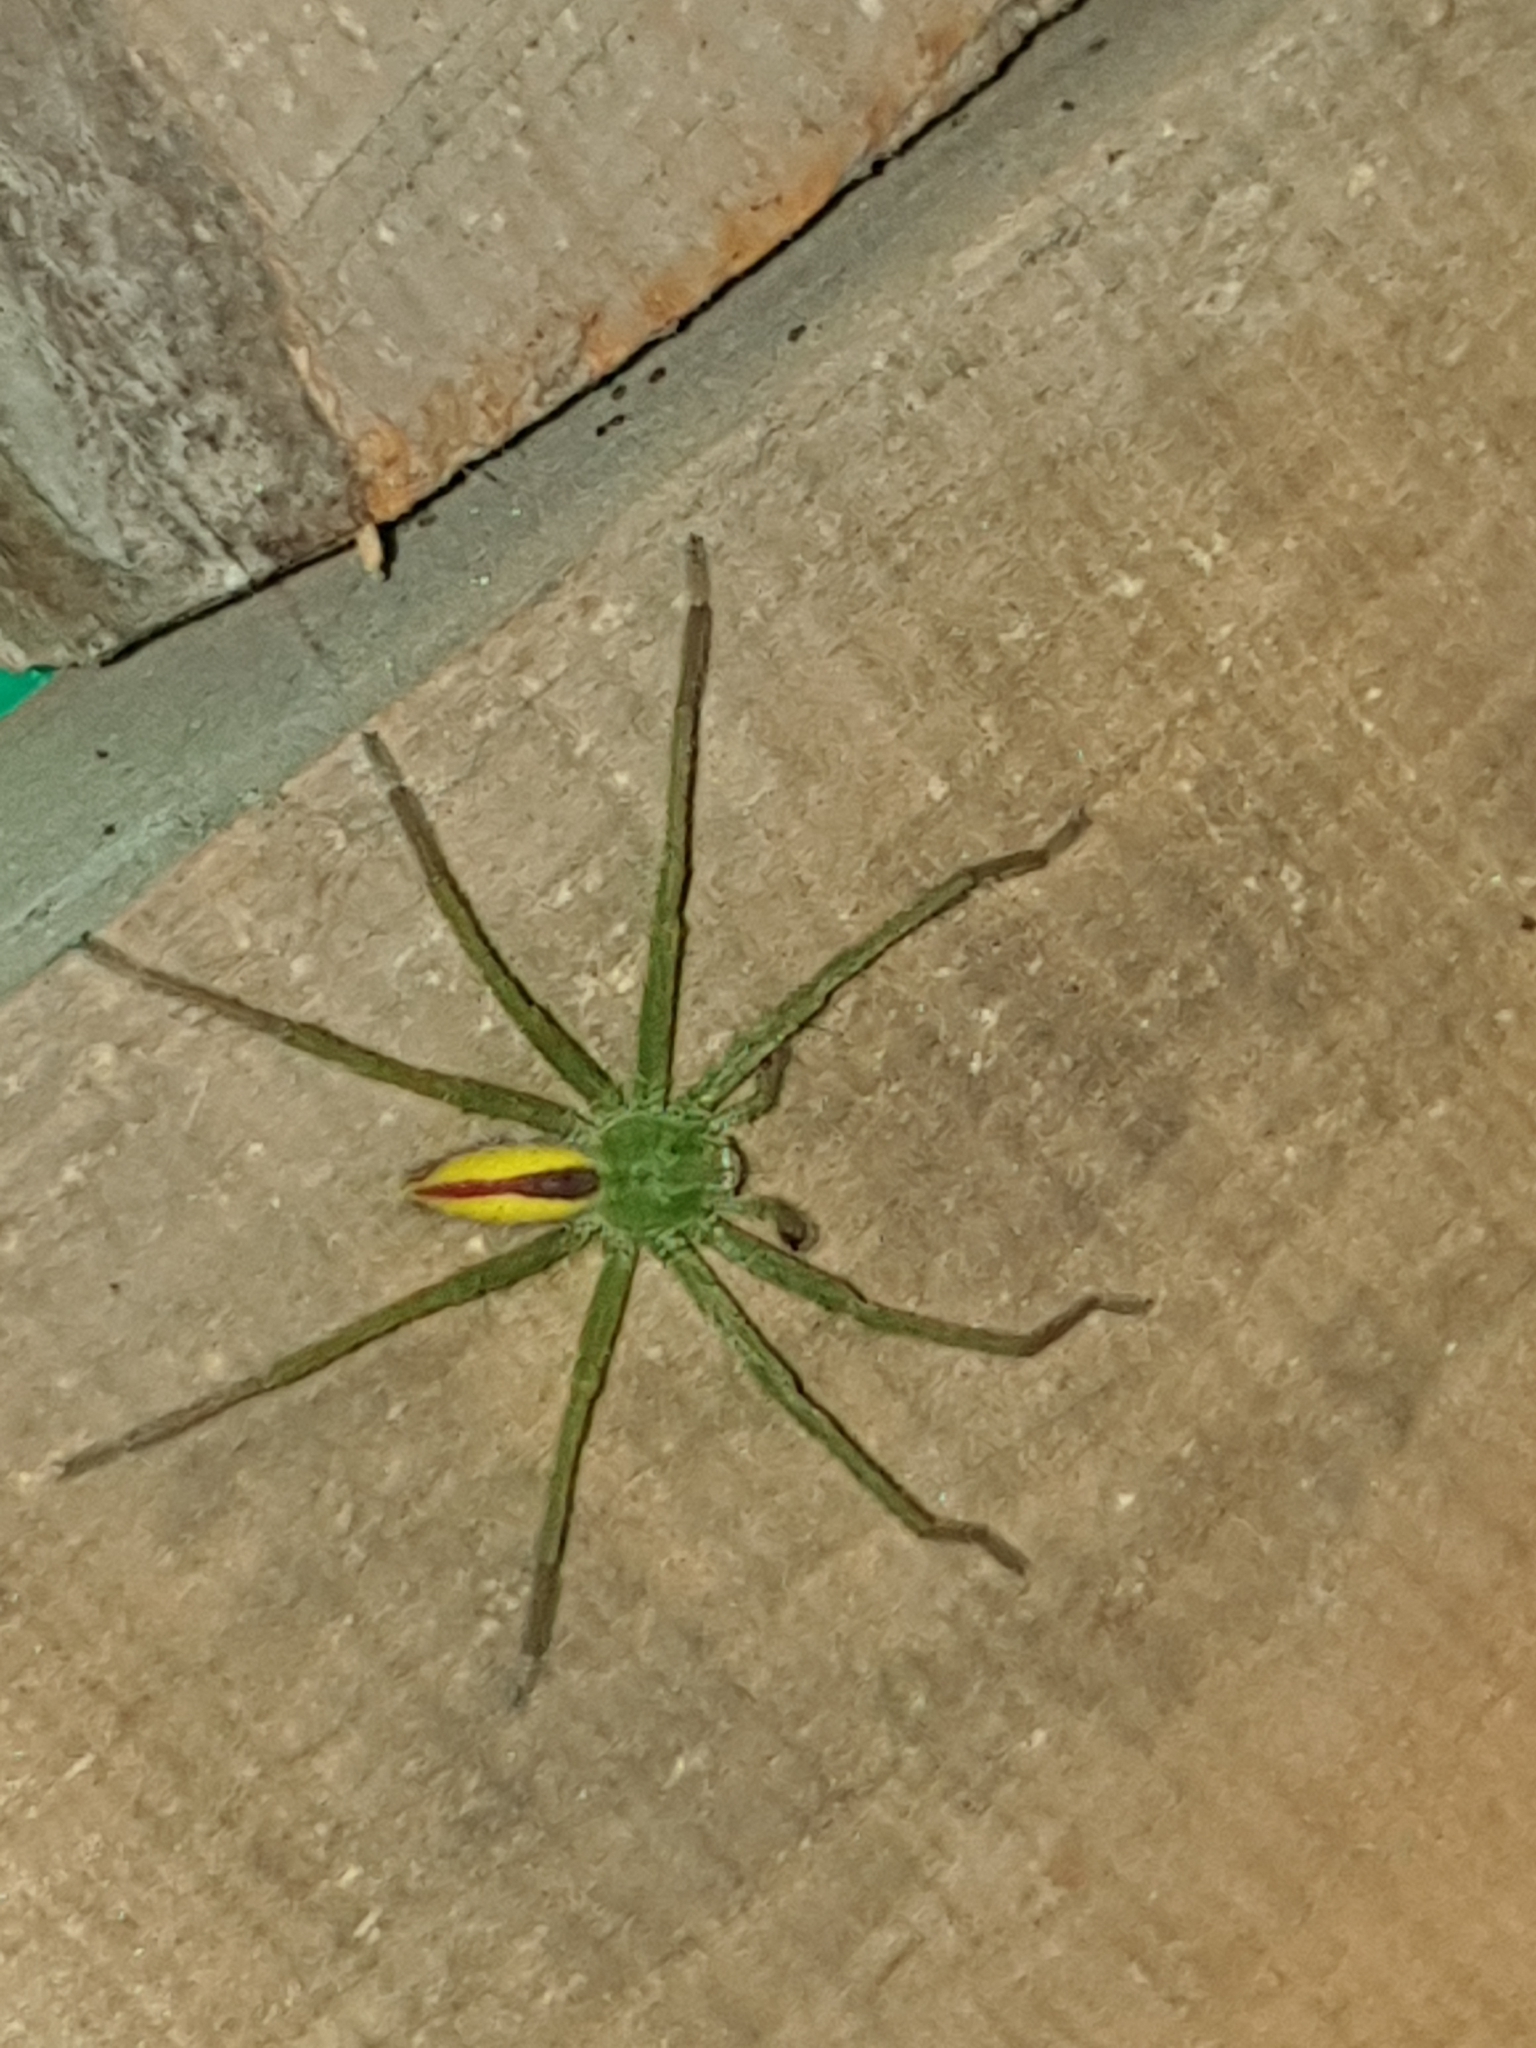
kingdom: Animalia
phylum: Arthropoda
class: Arachnida
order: Araneae
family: Sparassidae
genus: Micrommata
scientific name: Micrommata virescens
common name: Green spider
